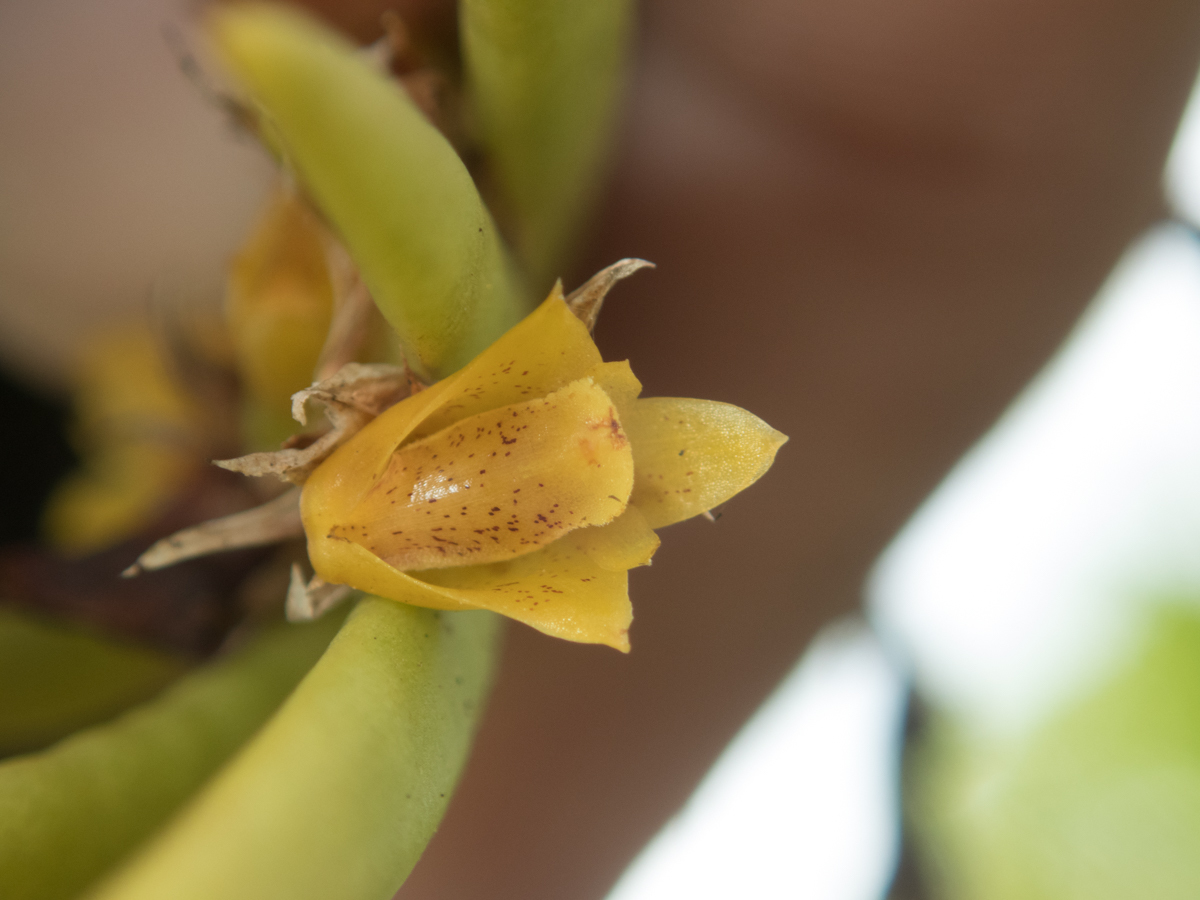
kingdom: Plantae
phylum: Tracheophyta
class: Liliopsida
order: Asparagales
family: Orchidaceae
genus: Oxystophyllum
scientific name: Oxystophyllum carnosum
